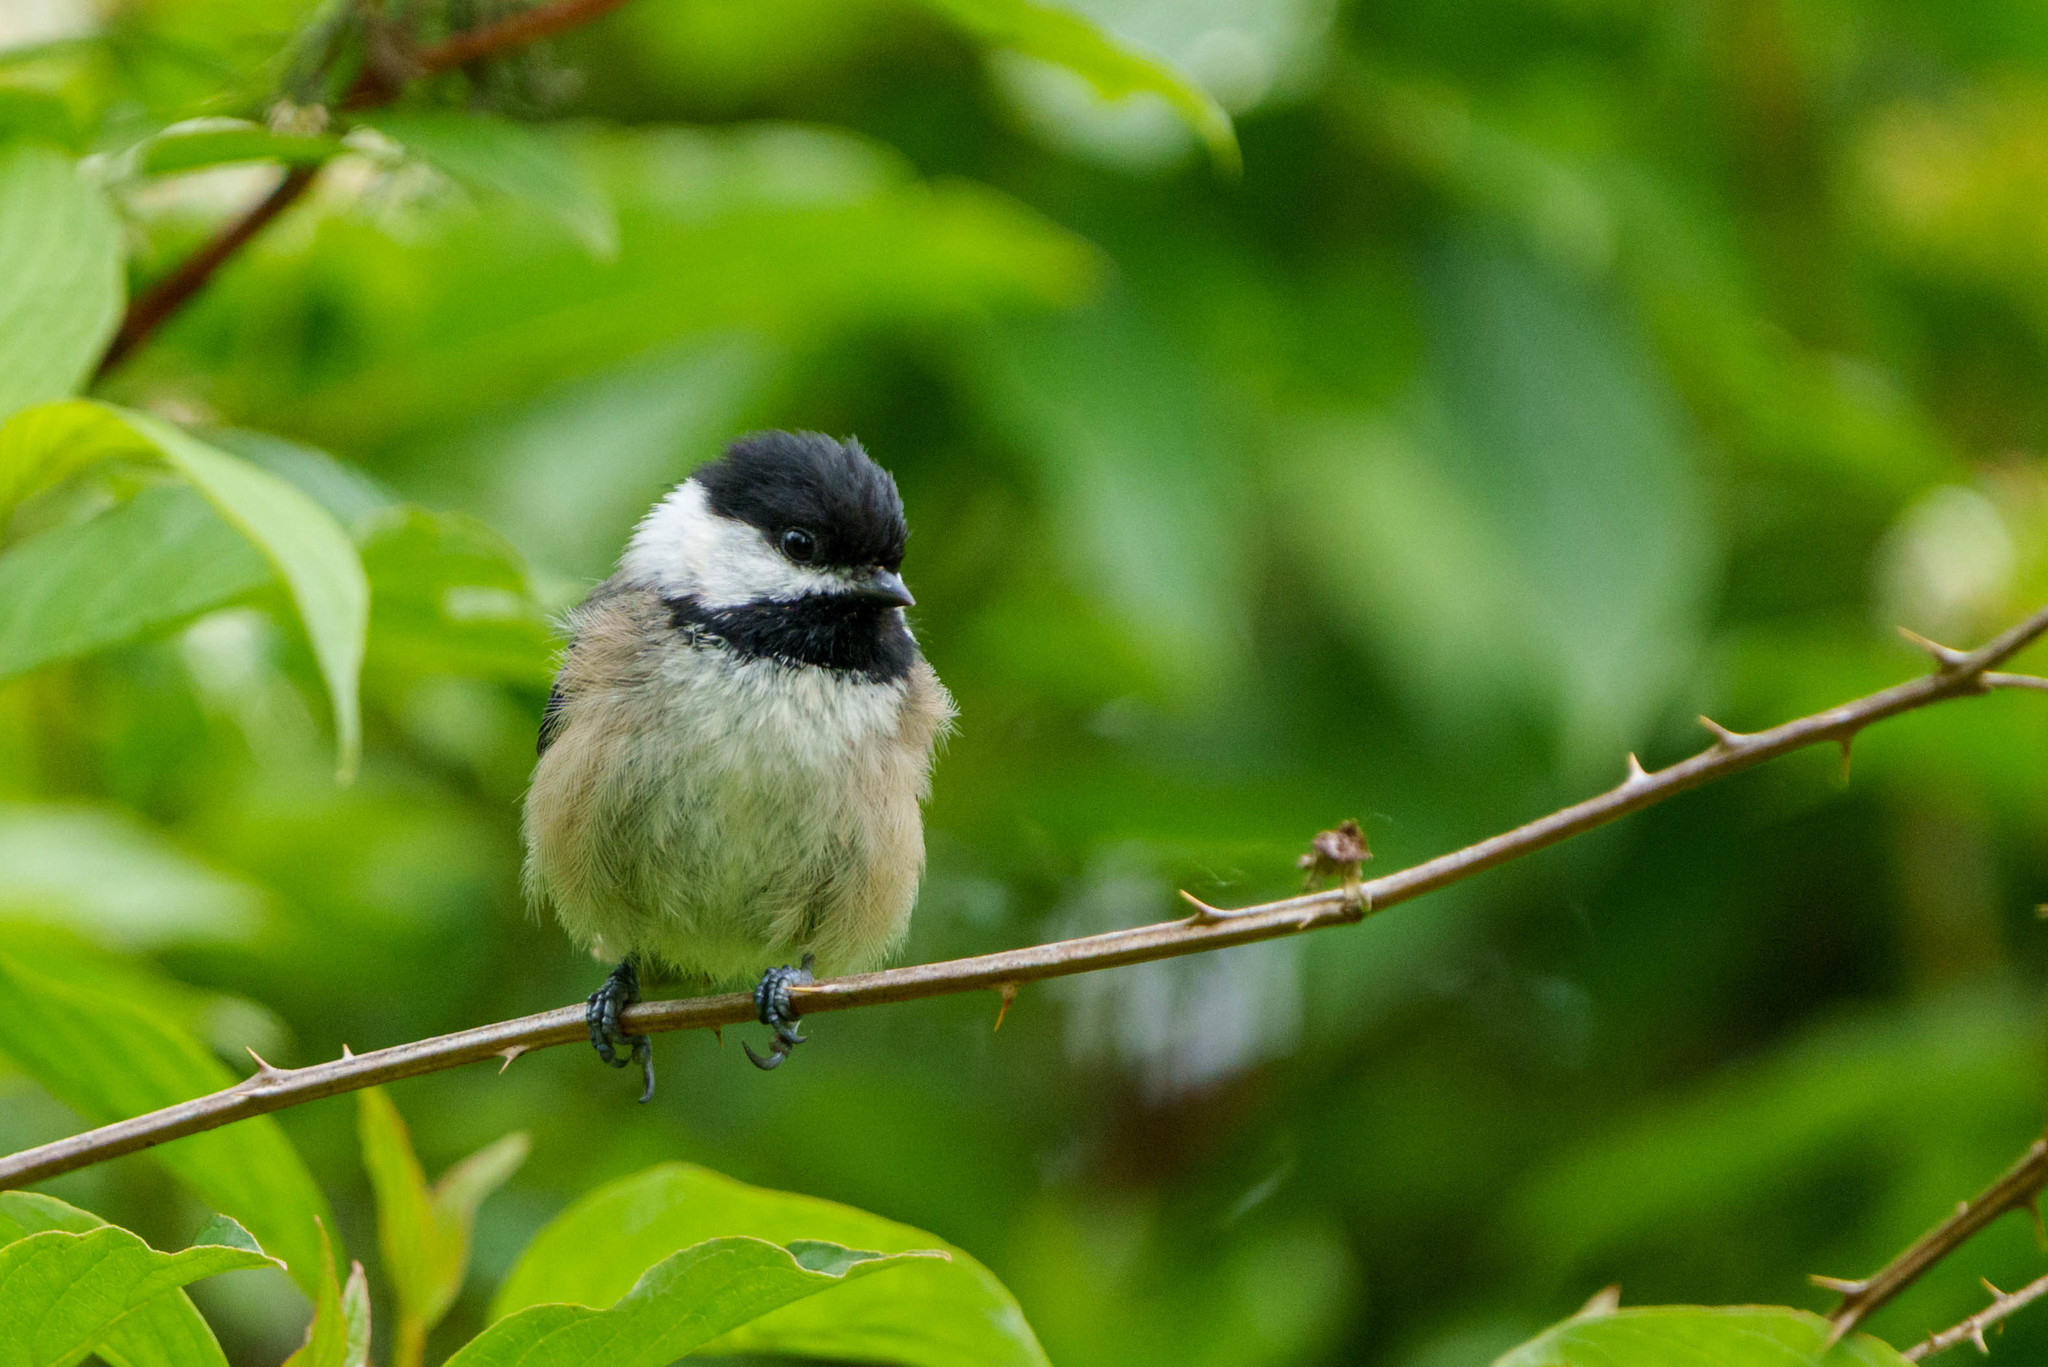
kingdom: Animalia
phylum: Chordata
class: Aves
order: Passeriformes
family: Paridae
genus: Poecile
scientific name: Poecile atricapillus
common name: Black-capped chickadee
